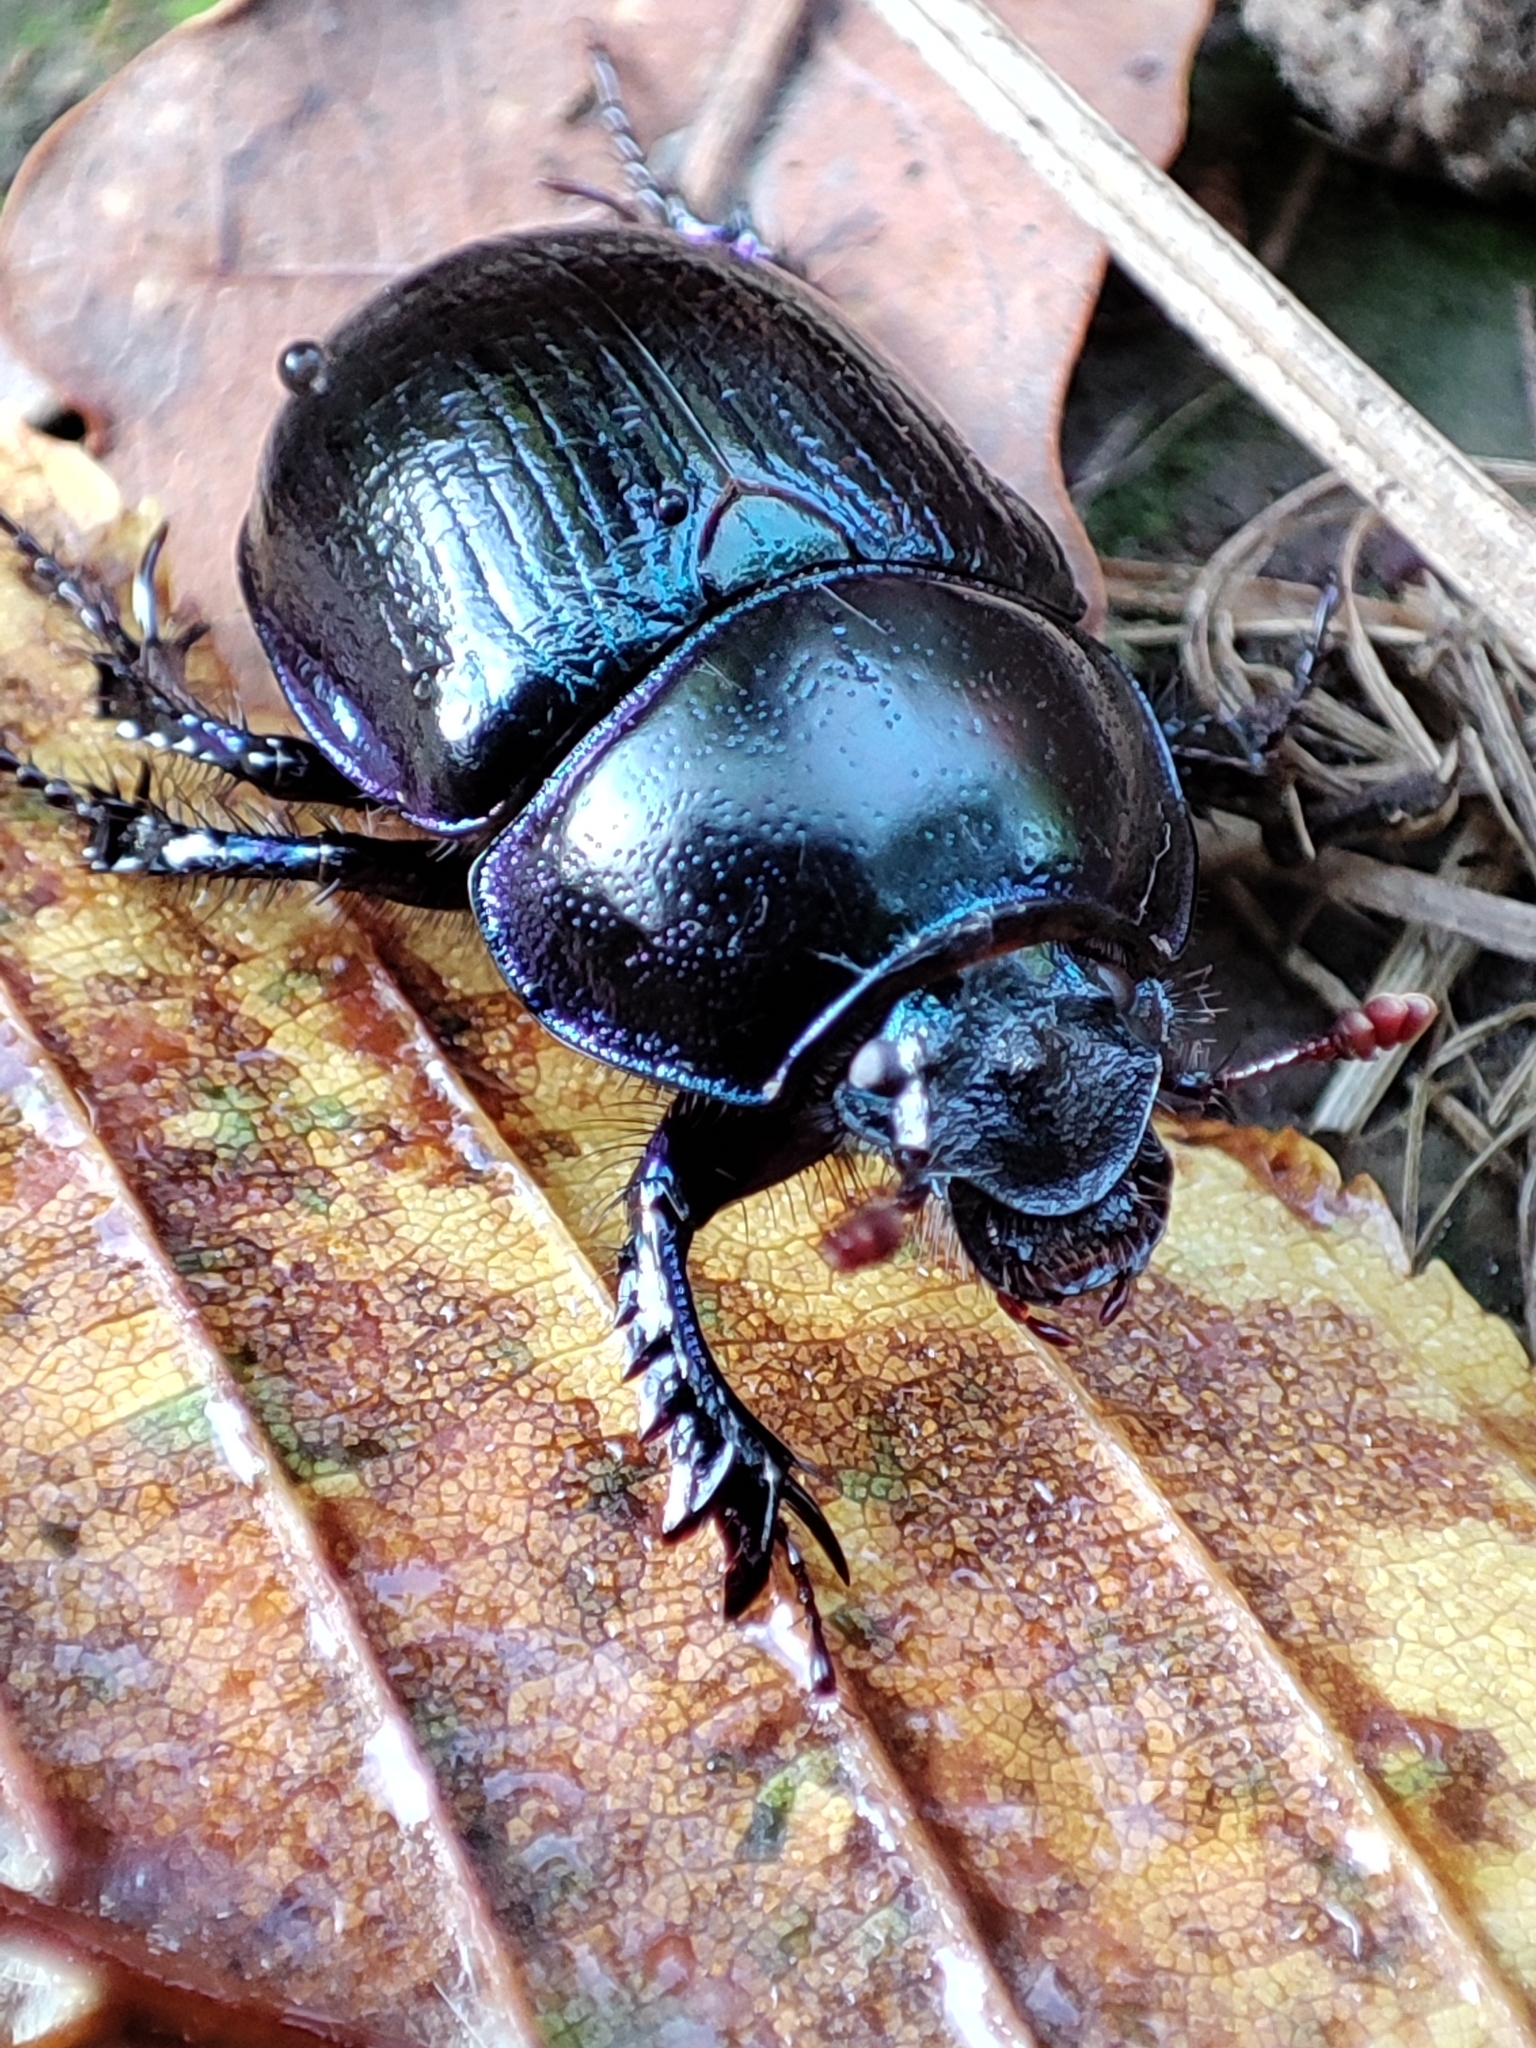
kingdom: Animalia
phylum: Arthropoda
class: Insecta
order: Coleoptera
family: Geotrupidae
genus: Anoplotrupes
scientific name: Anoplotrupes stercorosus
